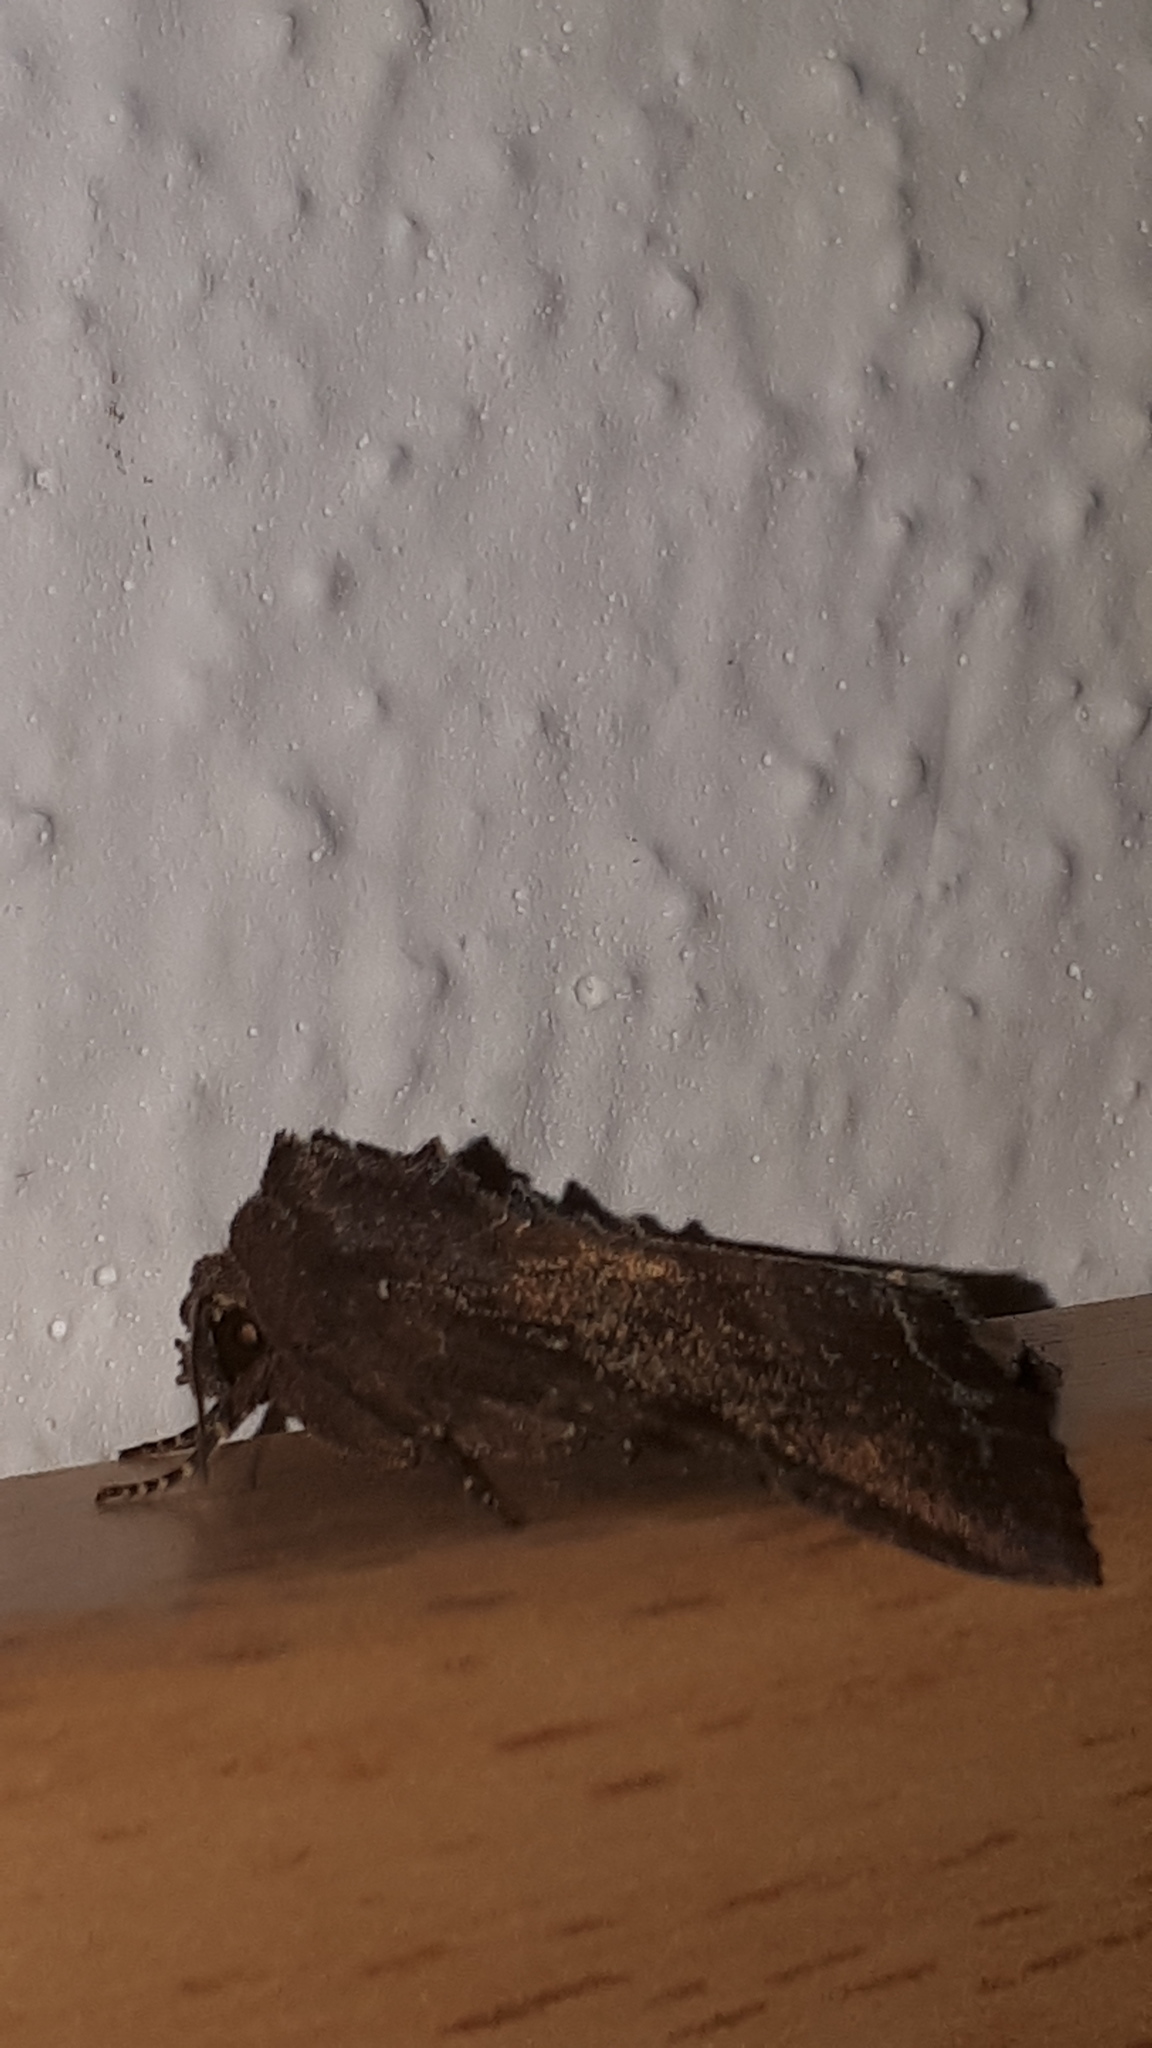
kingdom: Animalia
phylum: Arthropoda
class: Insecta
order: Lepidoptera
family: Noctuidae
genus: Lacanobia
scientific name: Lacanobia oleracea
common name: Bright-line brown-eye
